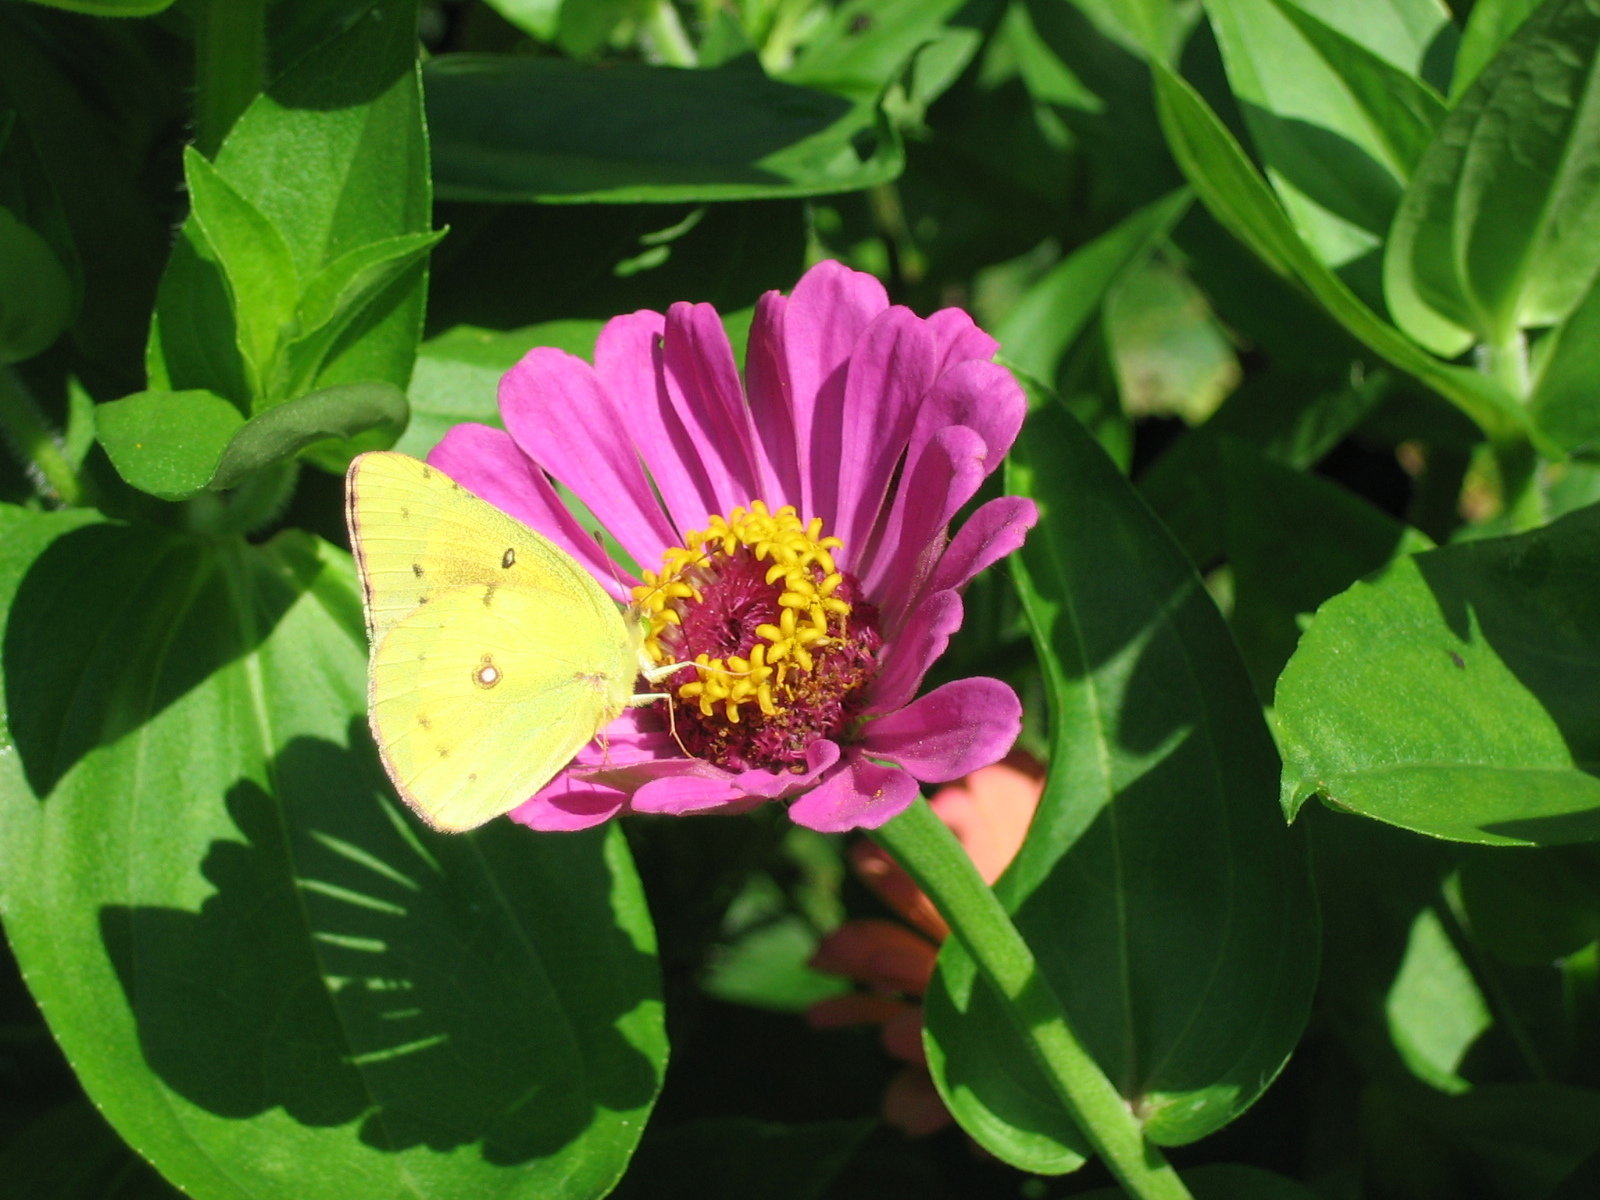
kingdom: Animalia
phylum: Arthropoda
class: Insecta
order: Lepidoptera
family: Pieridae
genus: Colias
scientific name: Colias eurytheme
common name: Alfalfa butterfly
